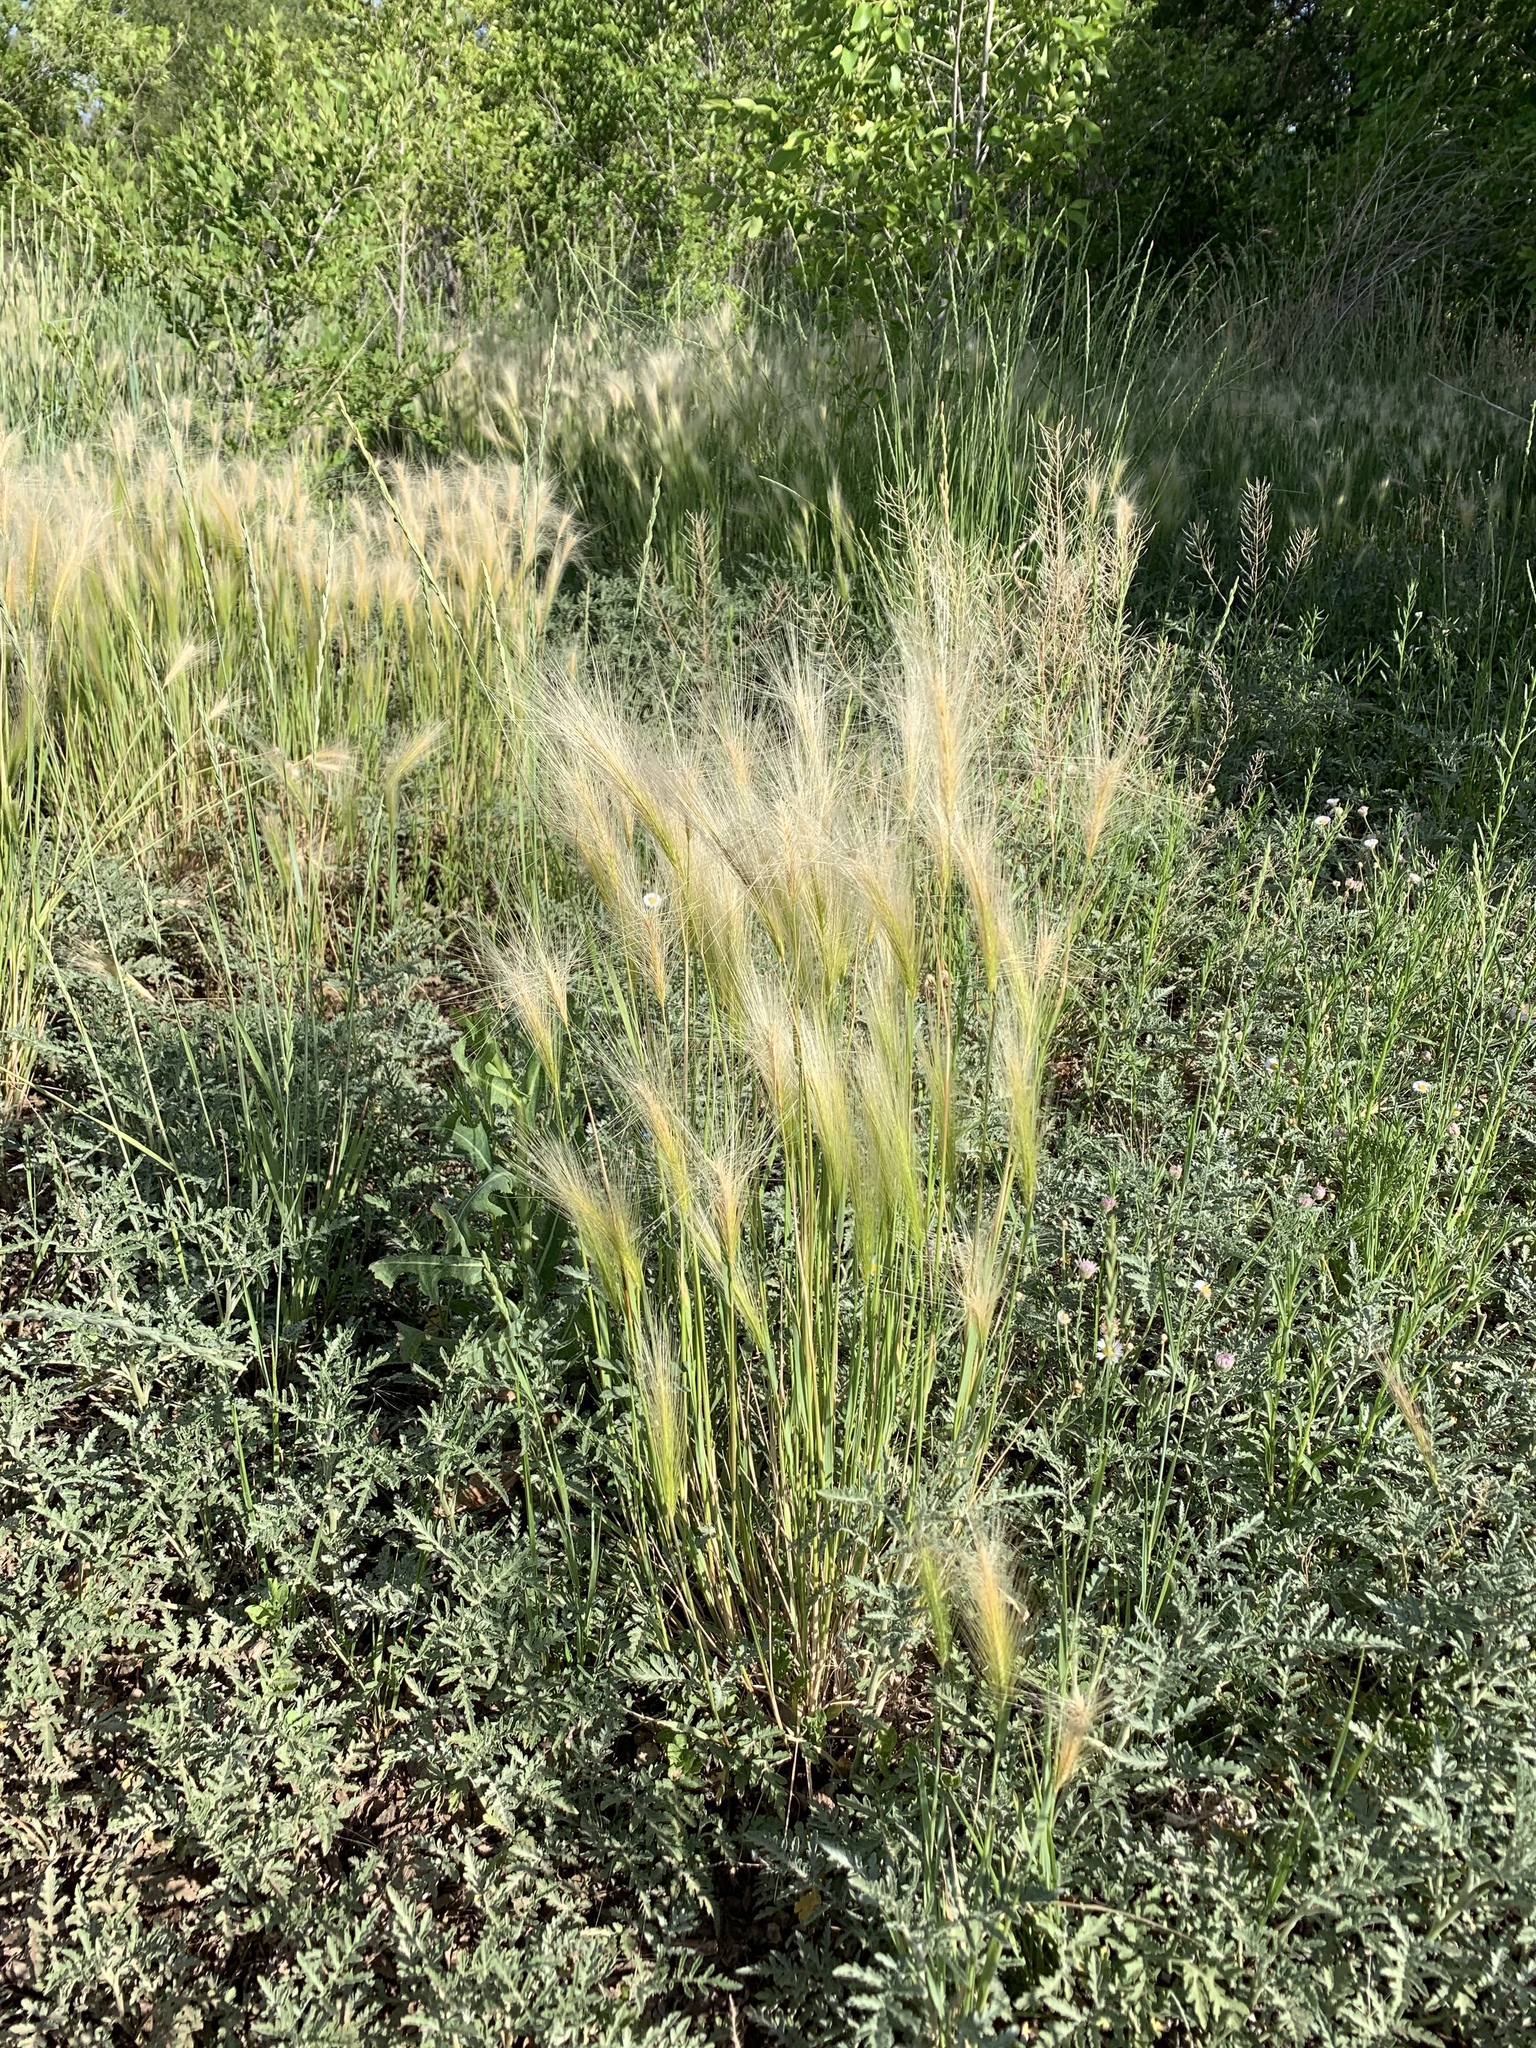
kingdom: Plantae
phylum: Tracheophyta
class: Liliopsida
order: Poales
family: Poaceae
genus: Hordeum
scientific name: Hordeum jubatum
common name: Foxtail barley
